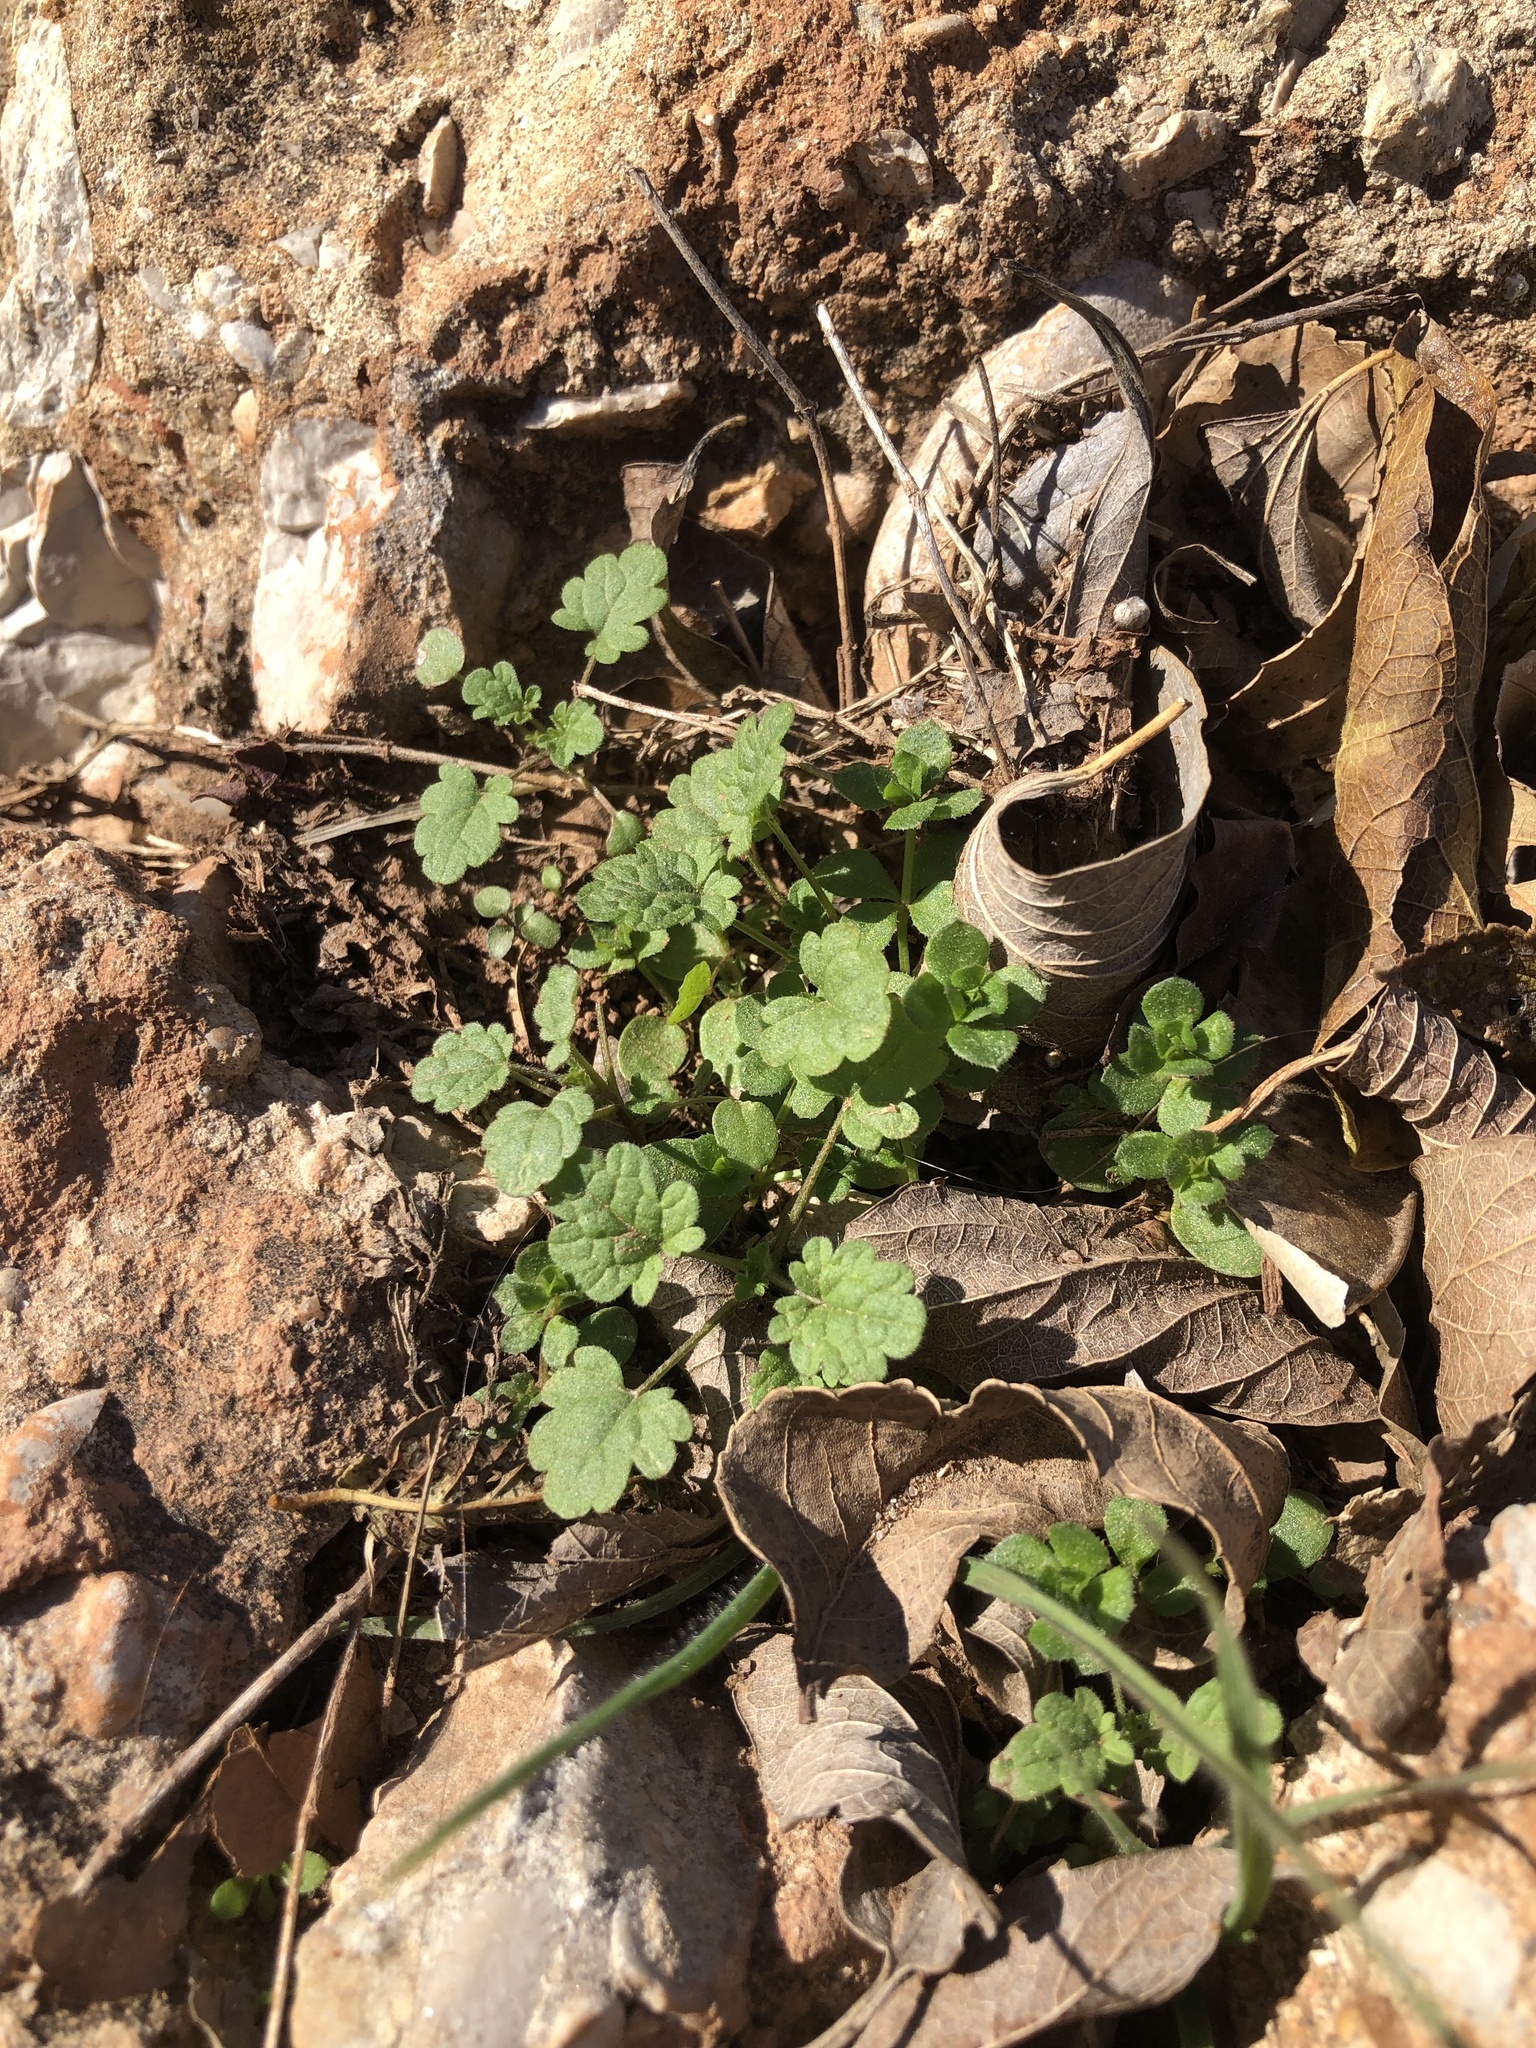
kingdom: Plantae
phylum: Tracheophyta
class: Magnoliopsida
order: Lamiales
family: Lamiaceae
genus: Lamium
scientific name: Lamium amplexicaule
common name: Henbit dead-nettle
